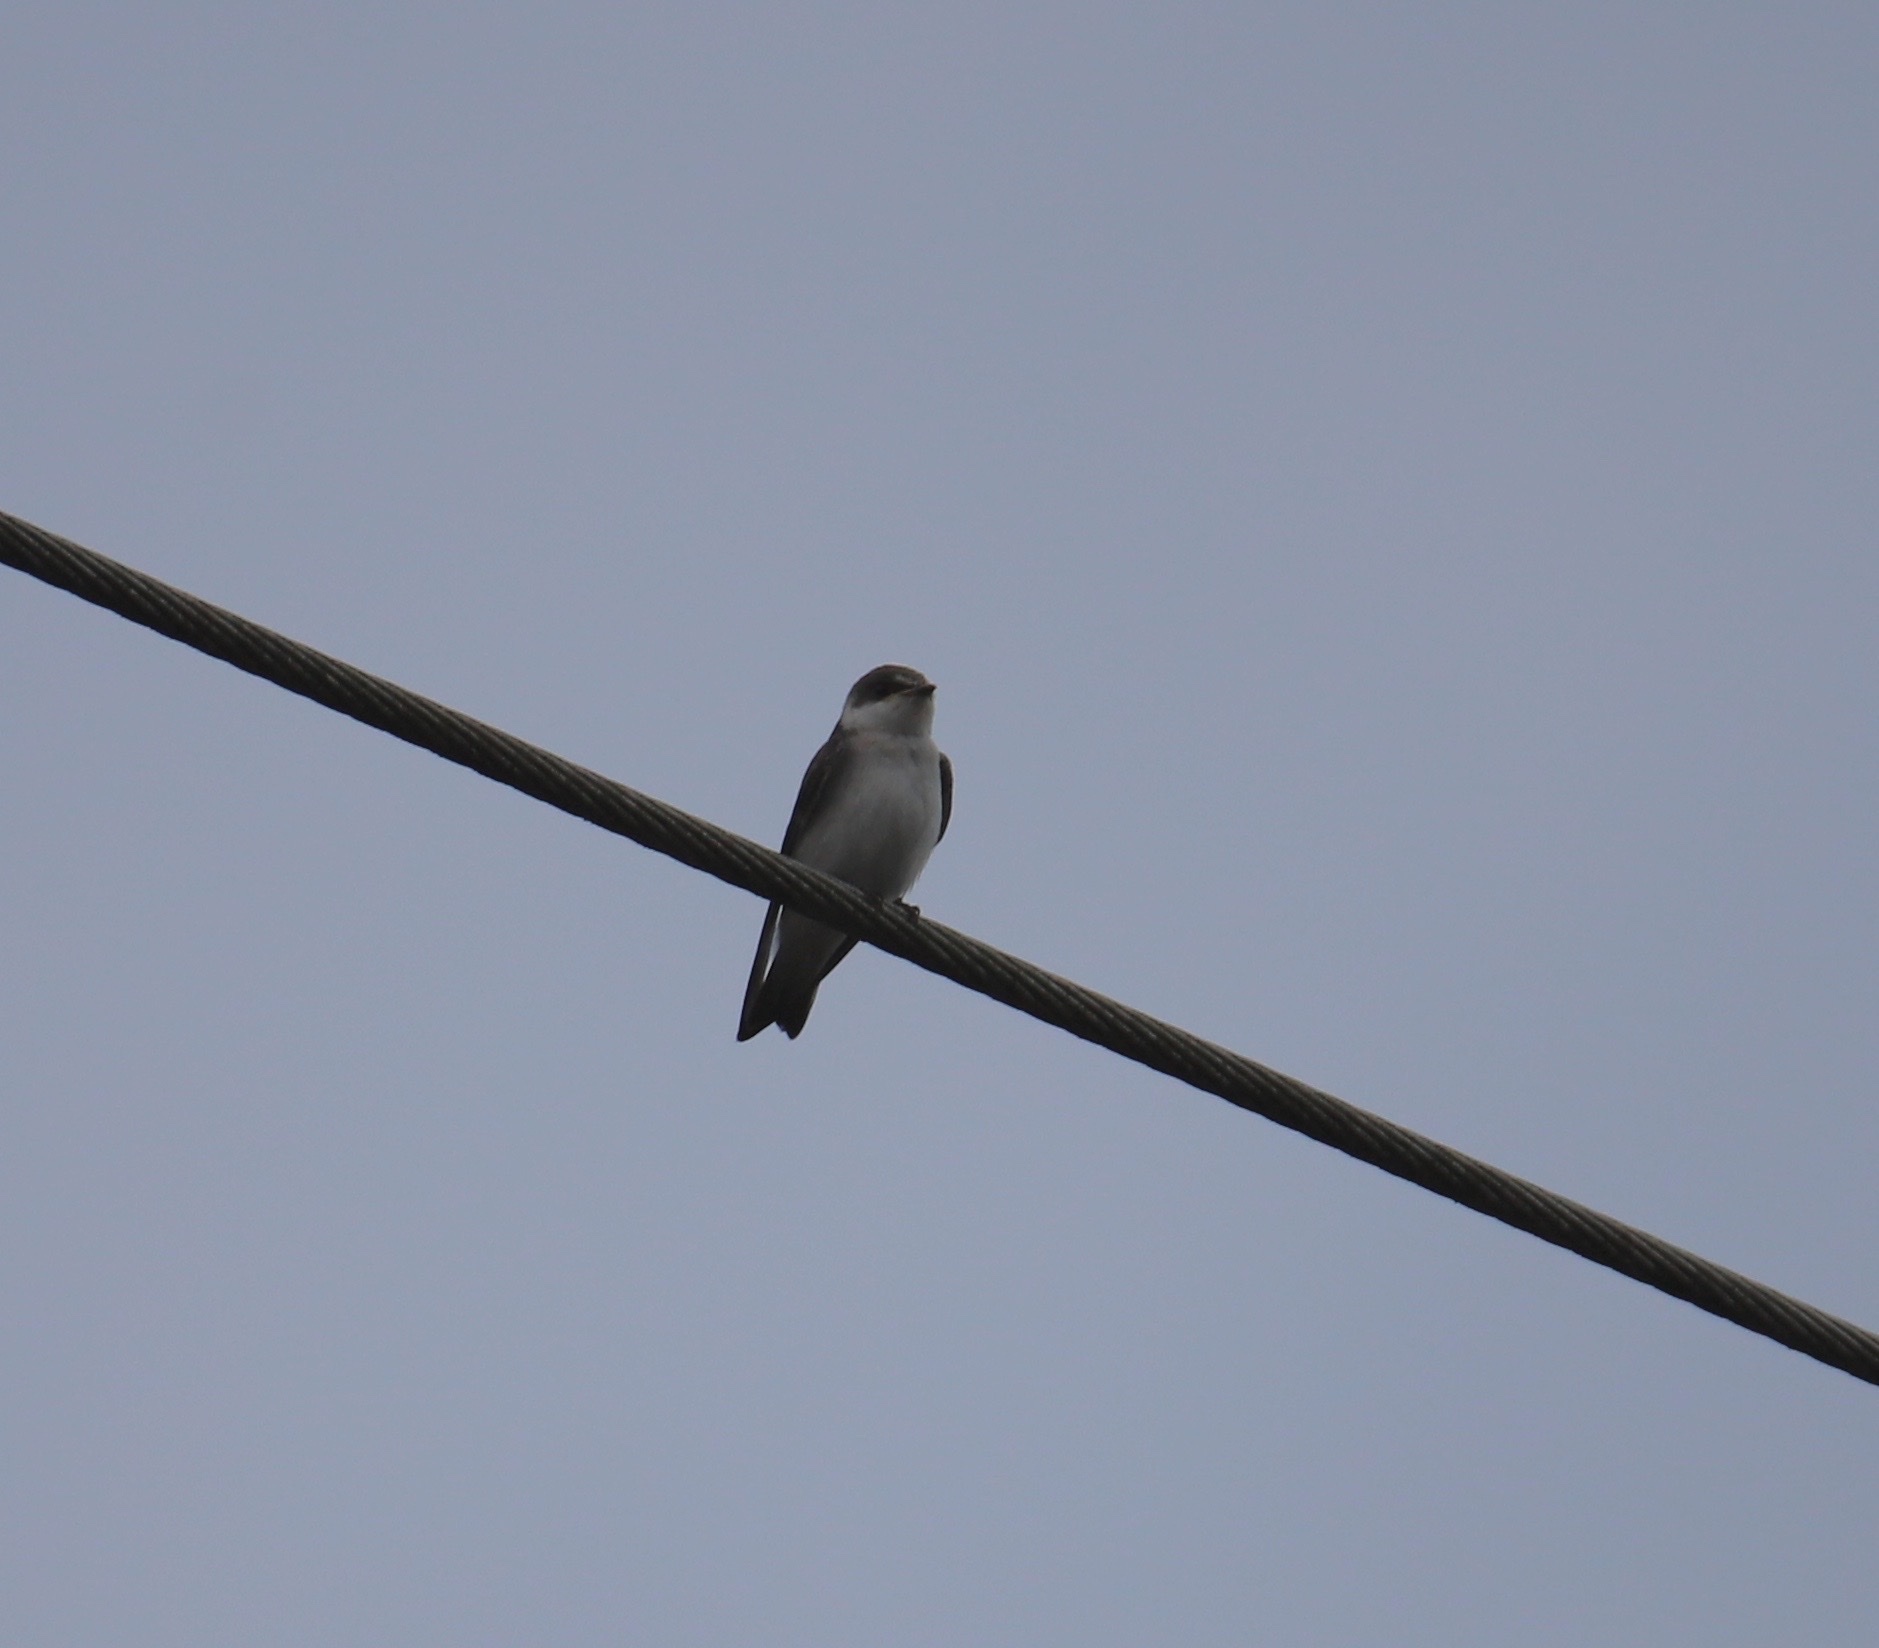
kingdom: Animalia
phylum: Chordata
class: Aves
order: Passeriformes
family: Hirundinidae
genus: Tachycineta
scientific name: Tachycineta albilinea
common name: Mangrove swallow
